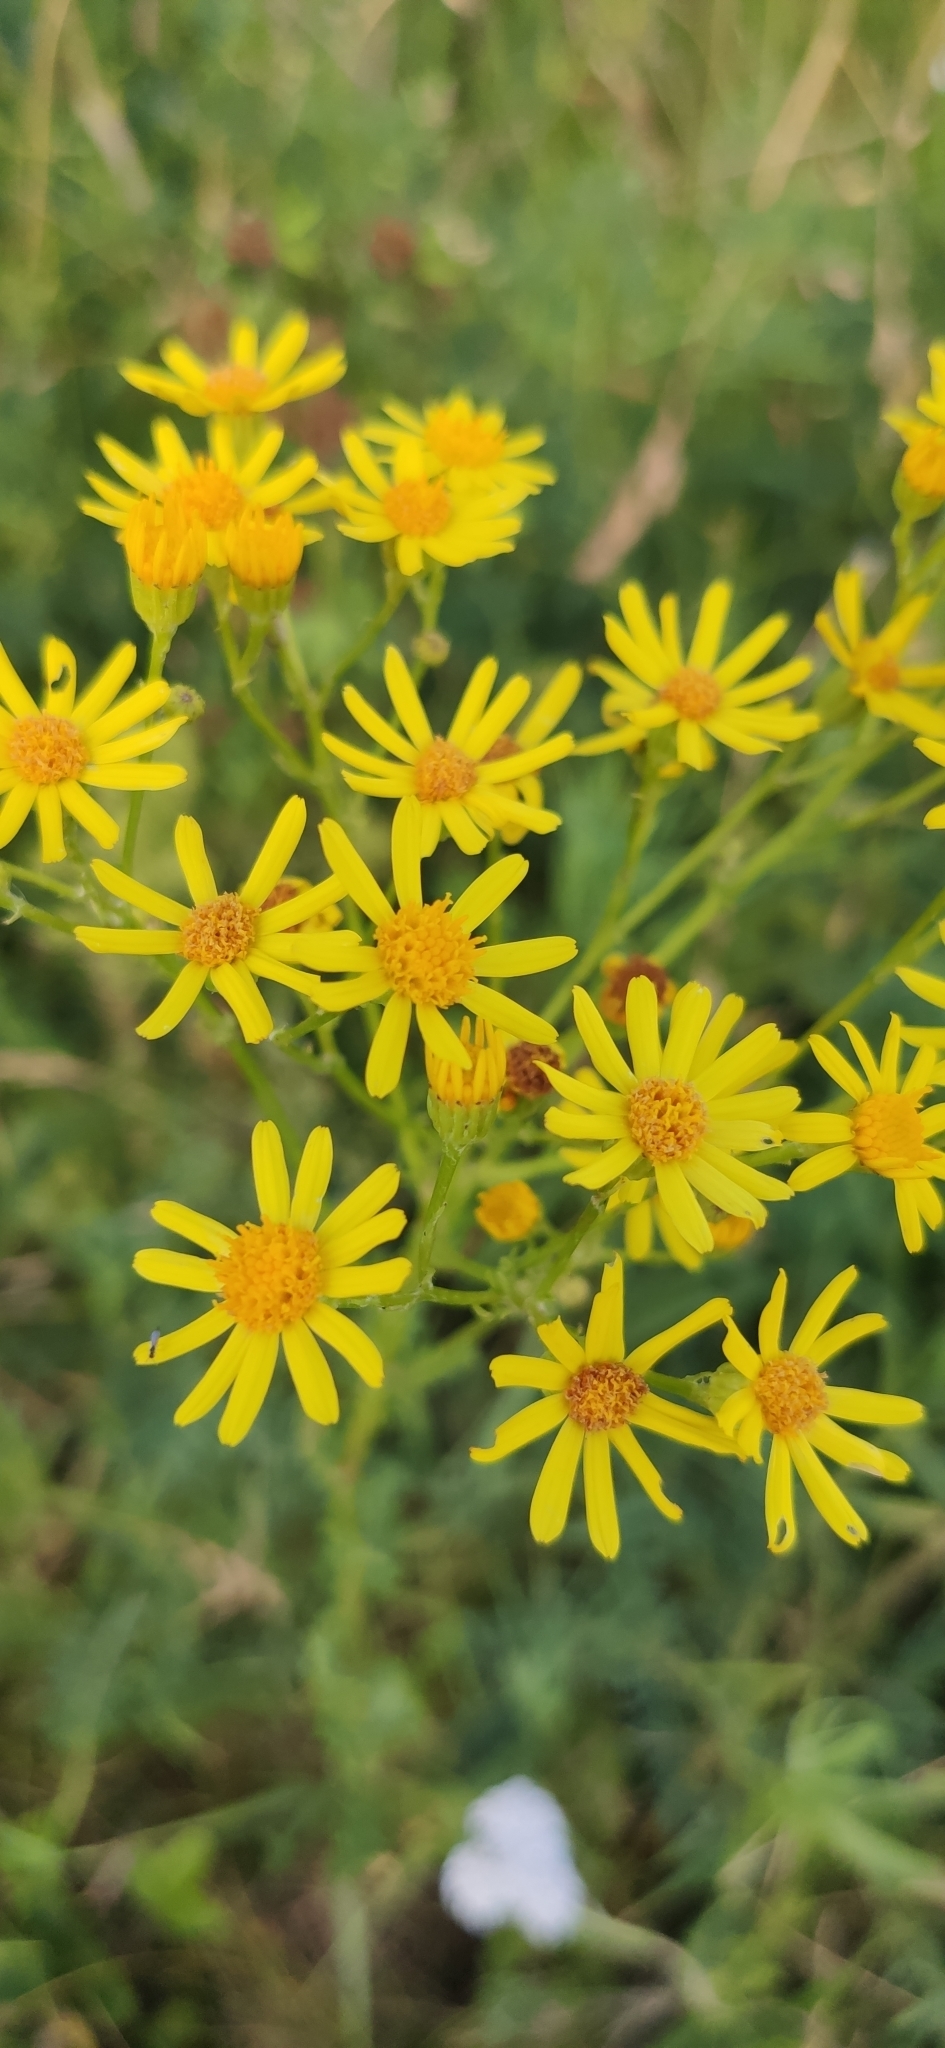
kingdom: Plantae
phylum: Tracheophyta
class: Magnoliopsida
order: Asterales
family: Asteraceae
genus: Jacobaea
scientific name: Jacobaea vulgaris
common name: Stinking willie
